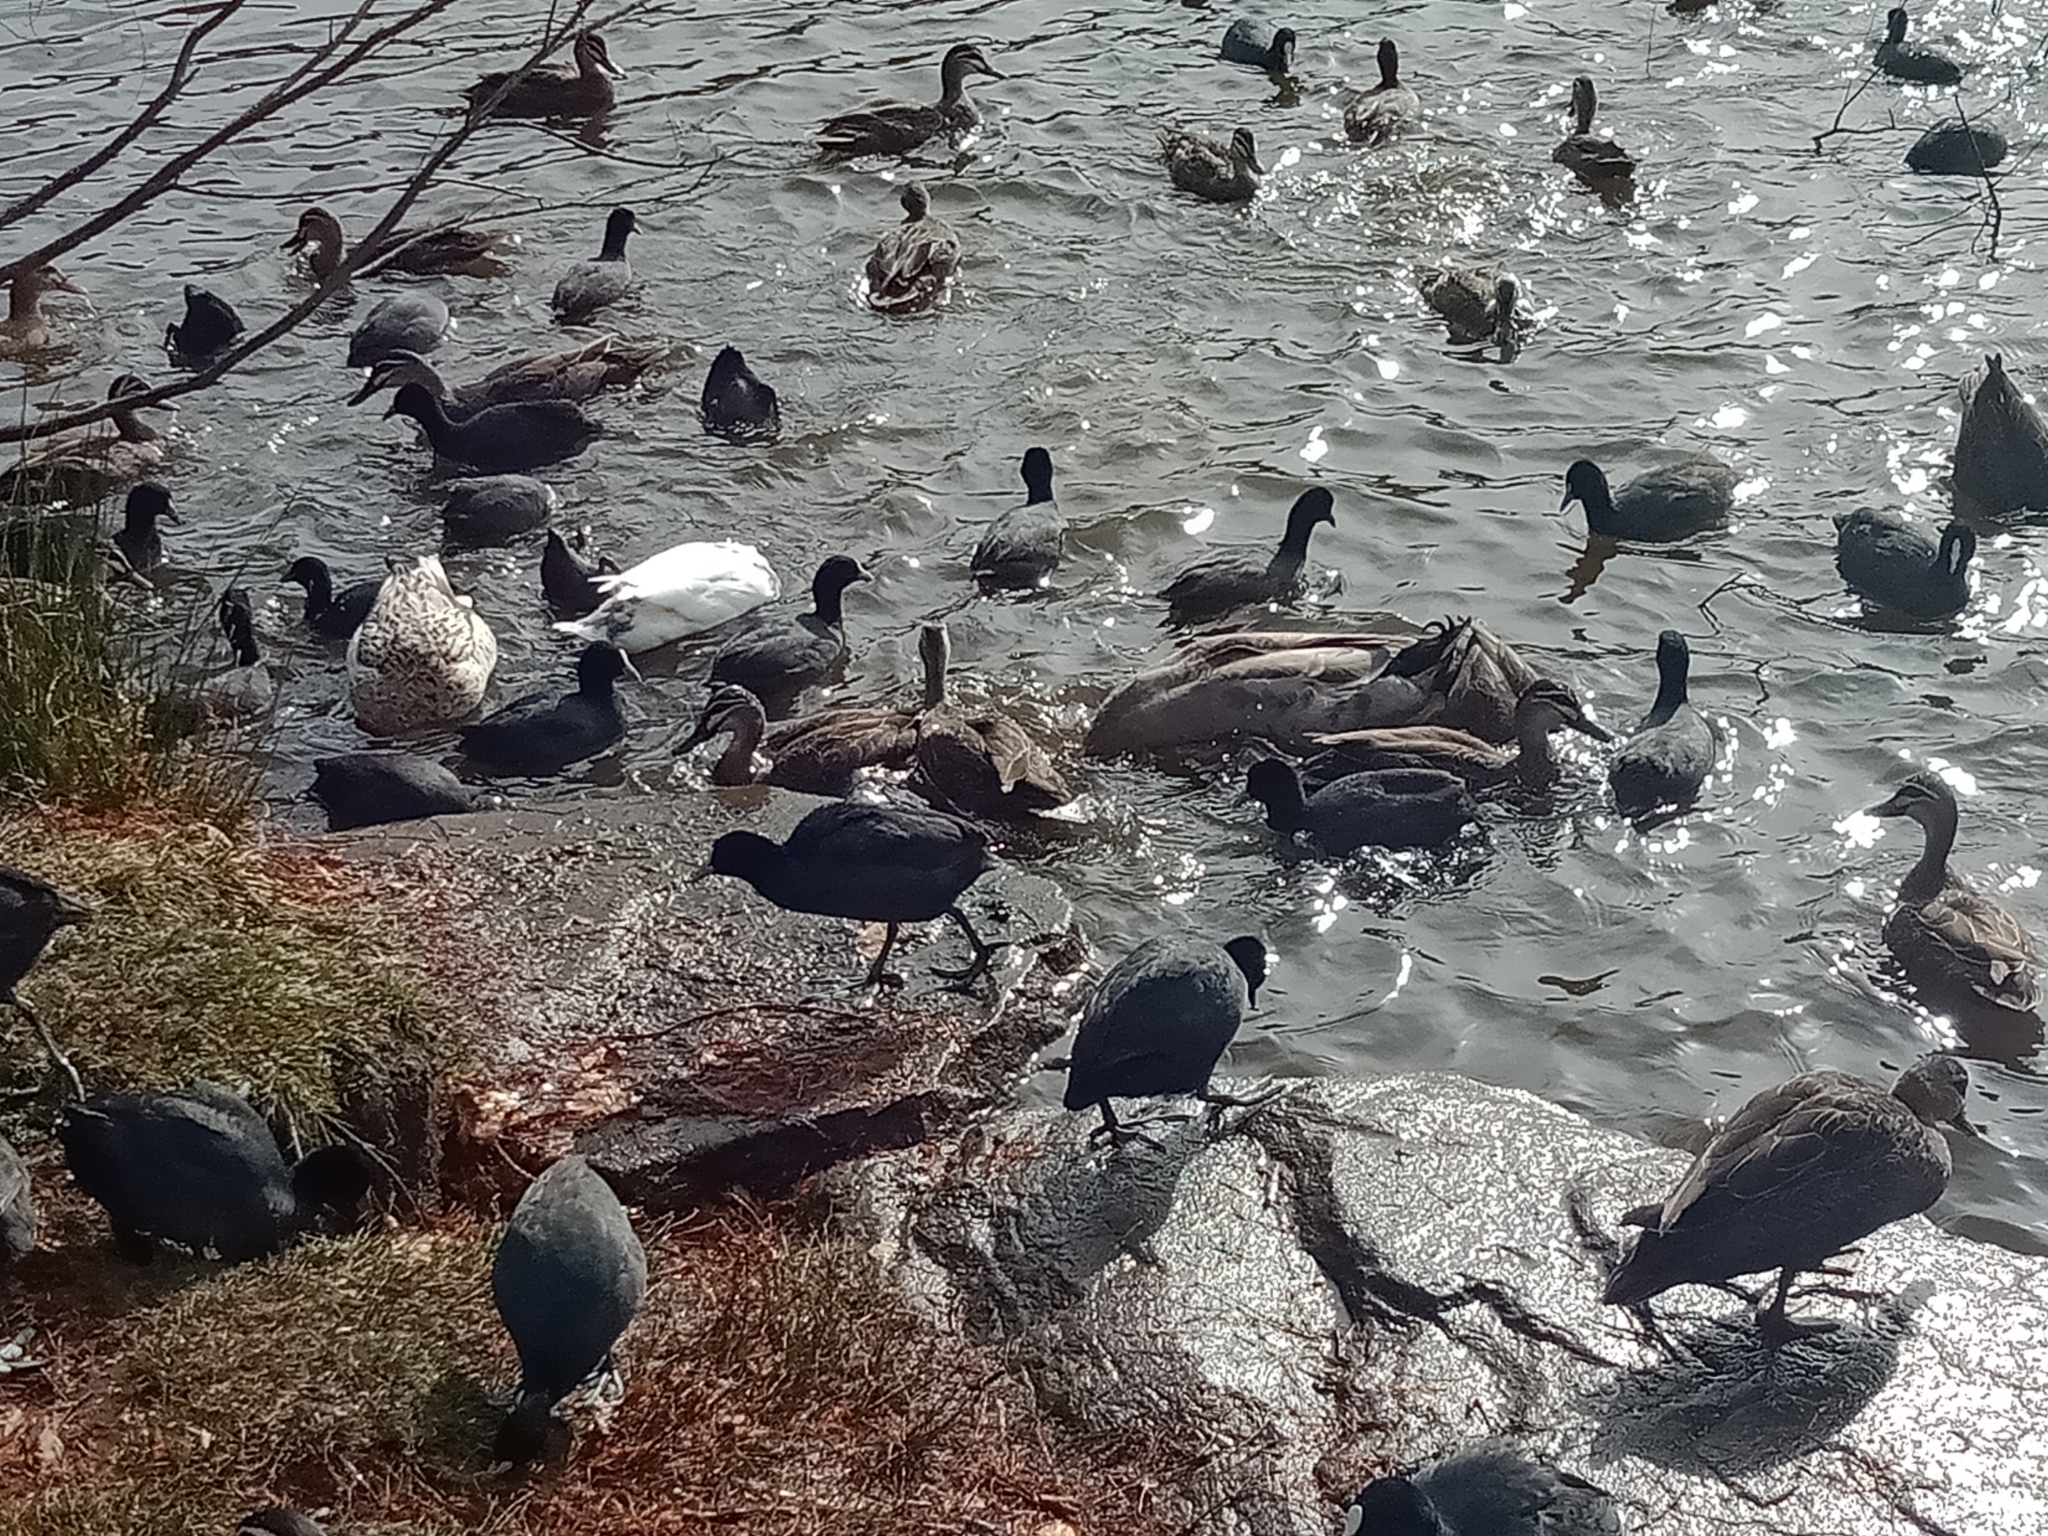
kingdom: Animalia
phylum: Chordata
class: Aves
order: Gruiformes
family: Rallidae
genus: Fulica
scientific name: Fulica atra
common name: Eurasian coot
